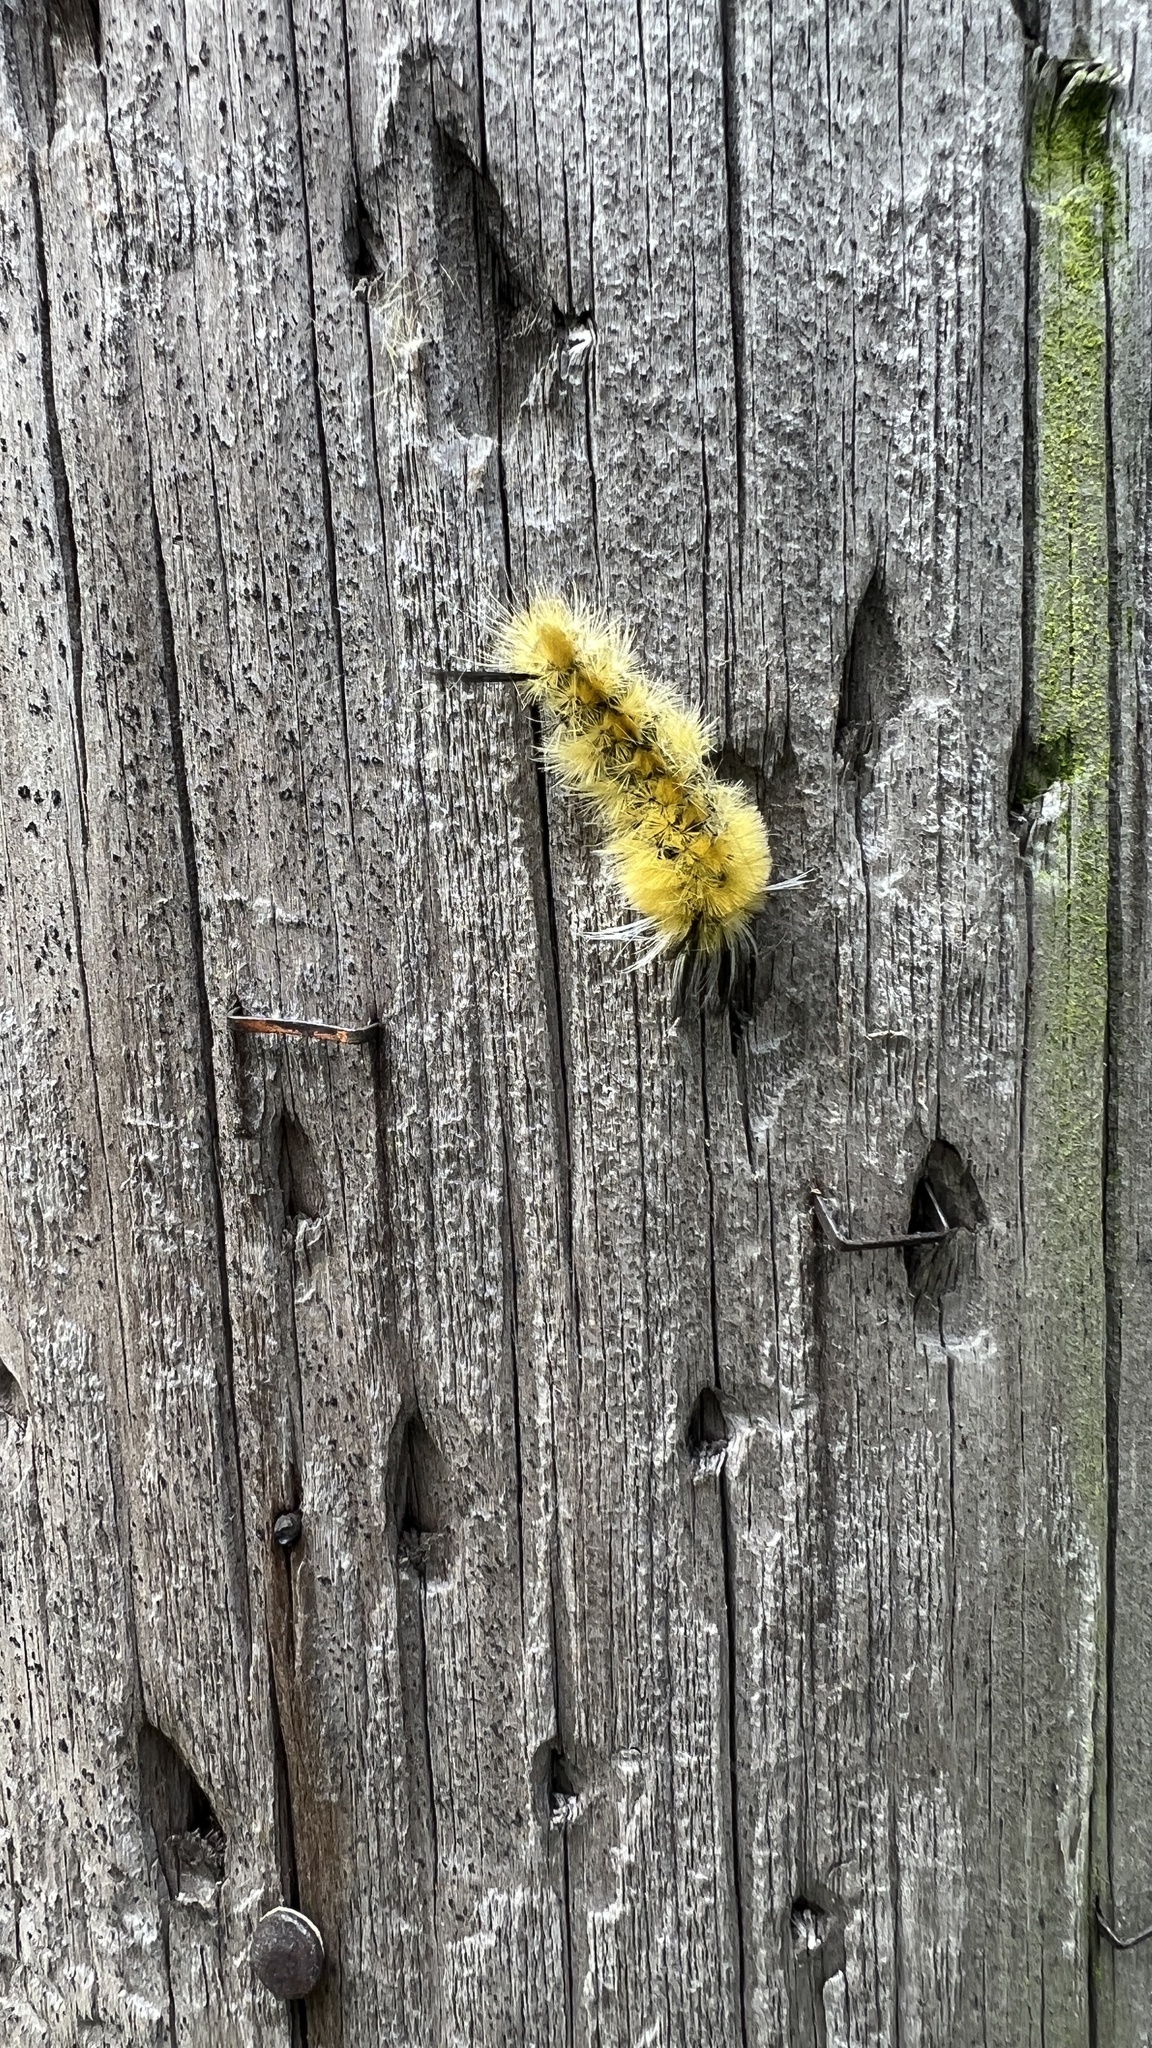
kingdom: Animalia
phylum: Arthropoda
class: Insecta
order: Lepidoptera
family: Erebidae
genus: Halysidota
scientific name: Halysidota tessellaris
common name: Banded tussock moth
